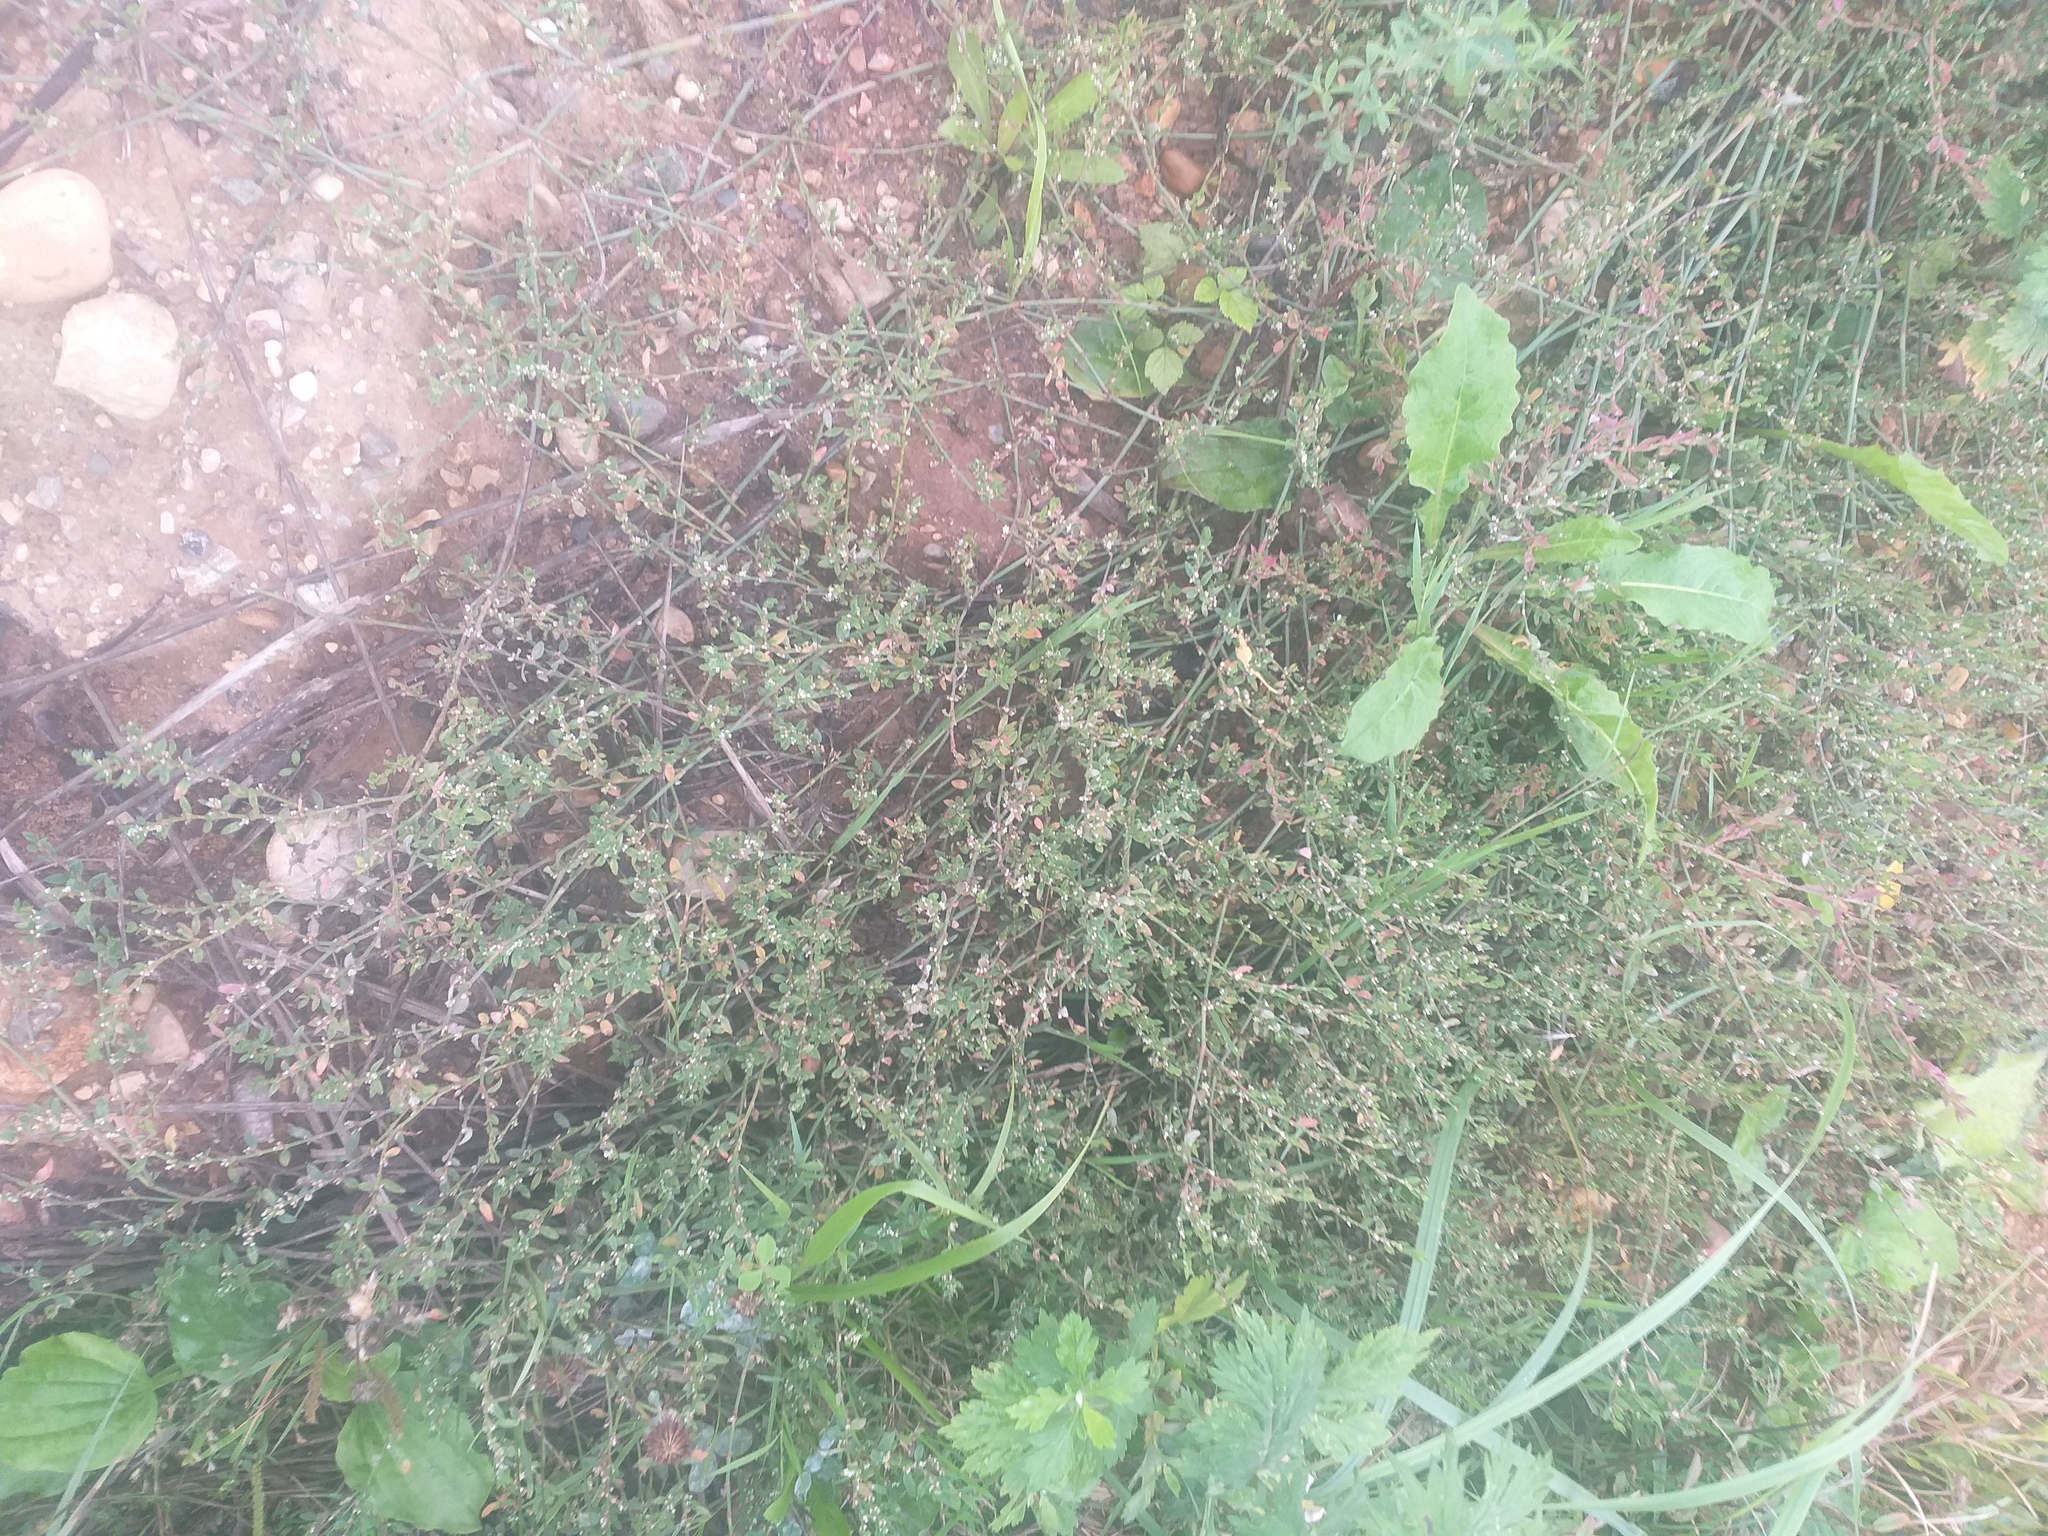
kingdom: Plantae
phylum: Tracheophyta
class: Magnoliopsida
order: Caryophyllales
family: Polygonaceae
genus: Polygonum
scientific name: Polygonum
